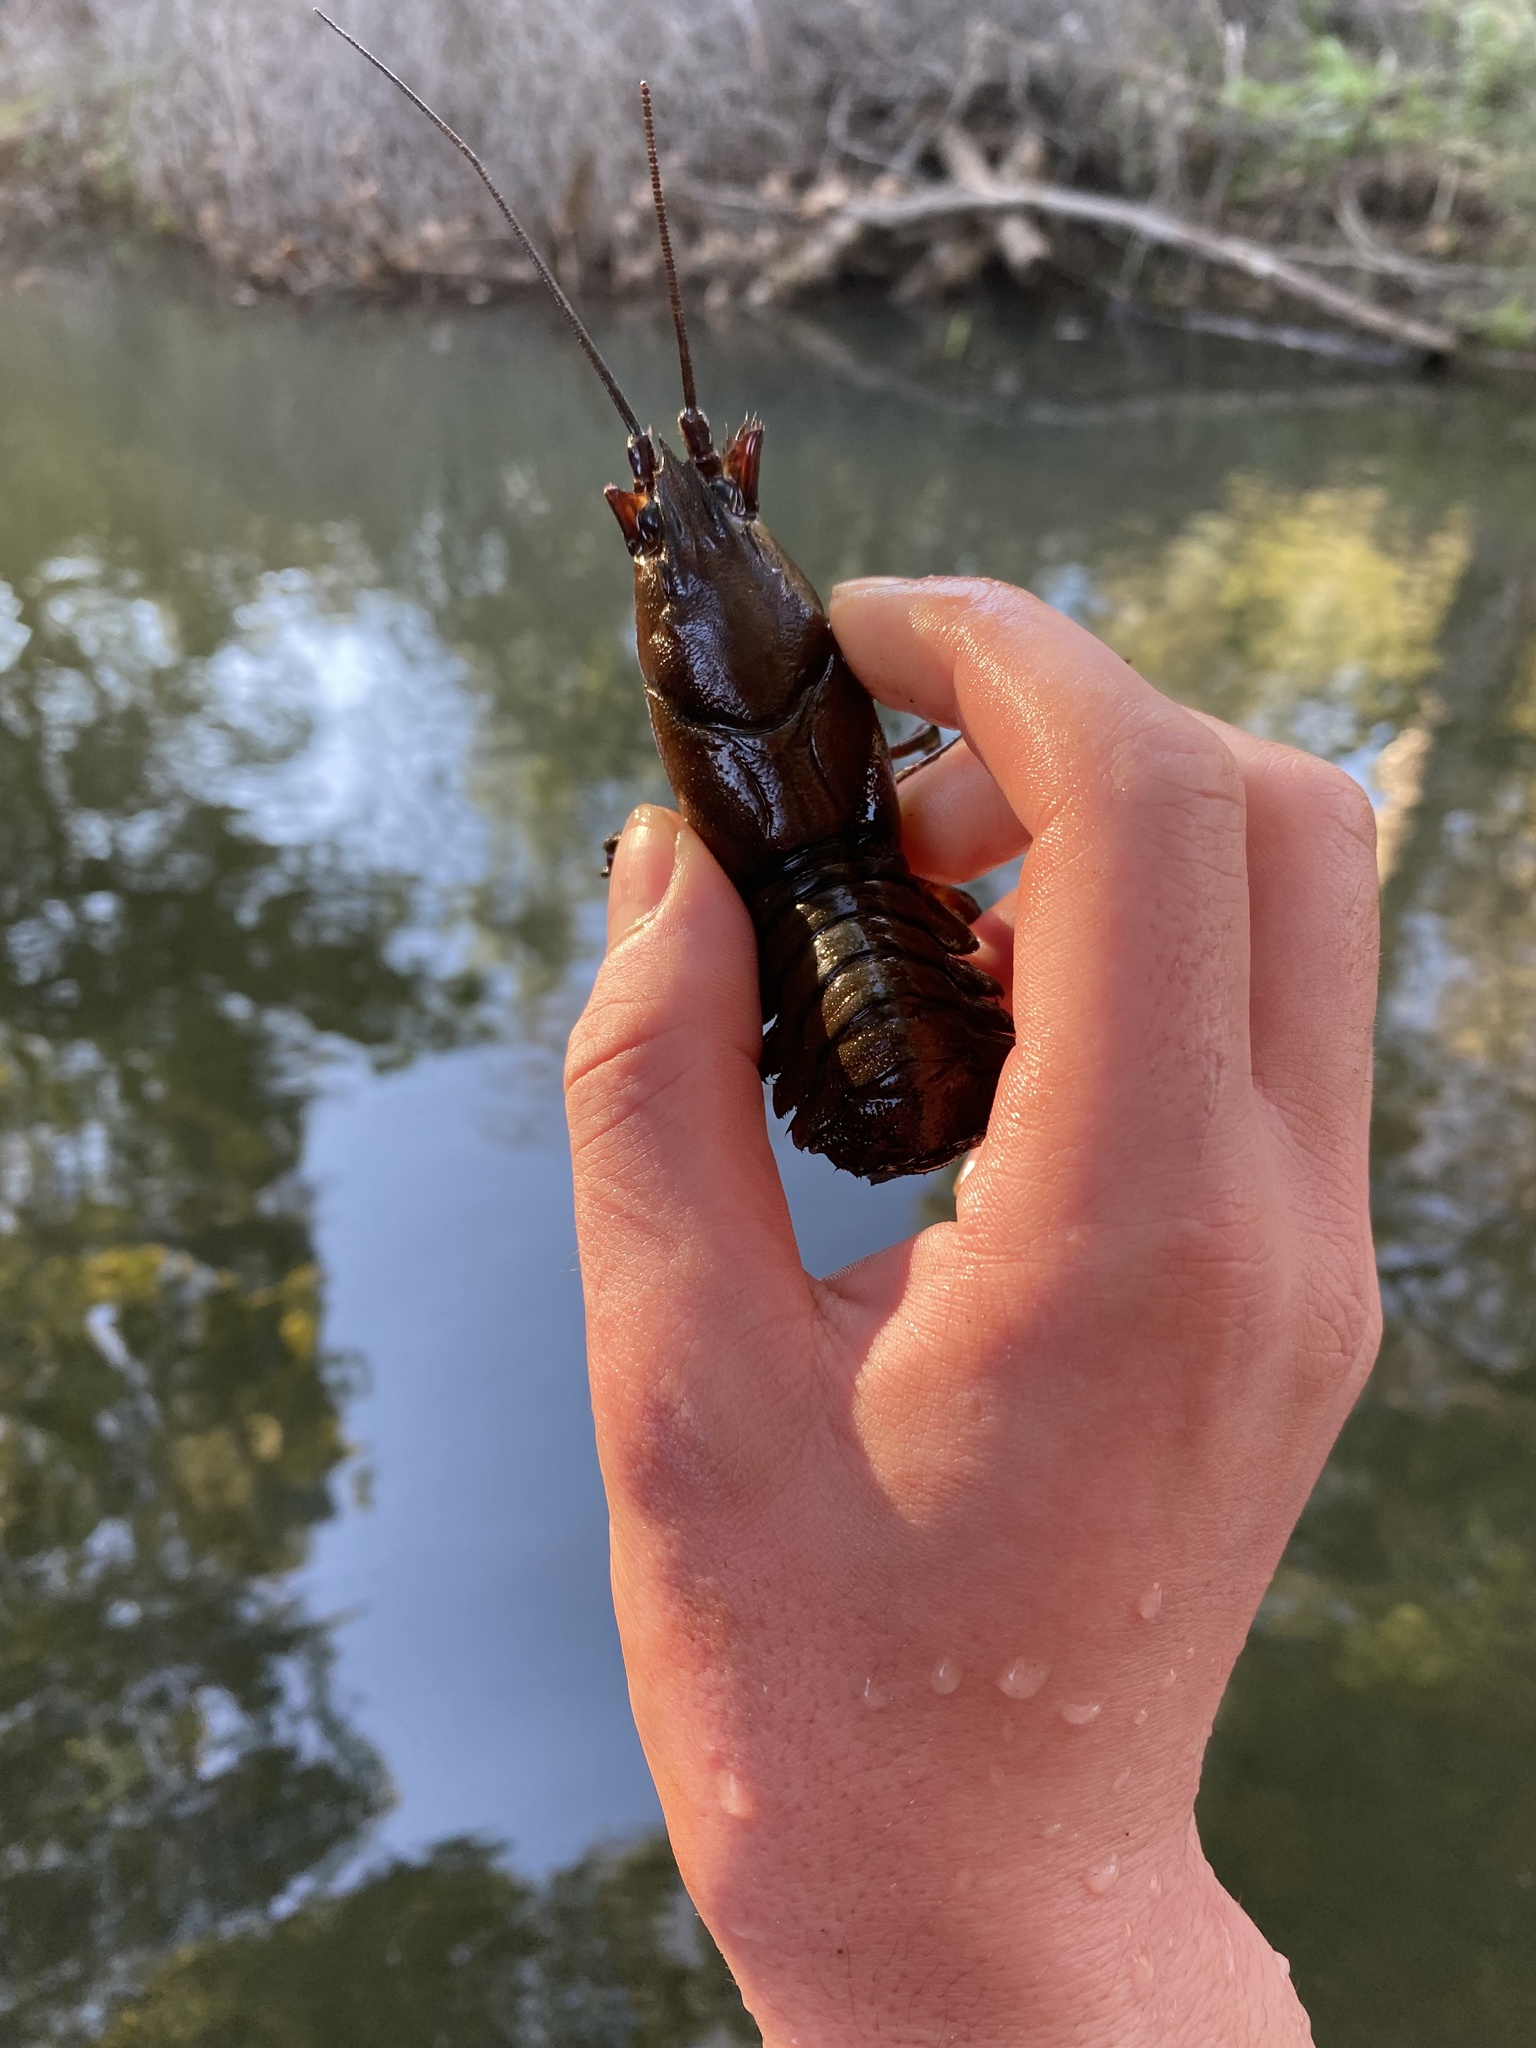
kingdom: Animalia
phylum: Arthropoda
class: Malacostraca
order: Decapoda
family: Astacidae
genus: Pacifastacus
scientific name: Pacifastacus leniusculus
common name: Signal crayfish
